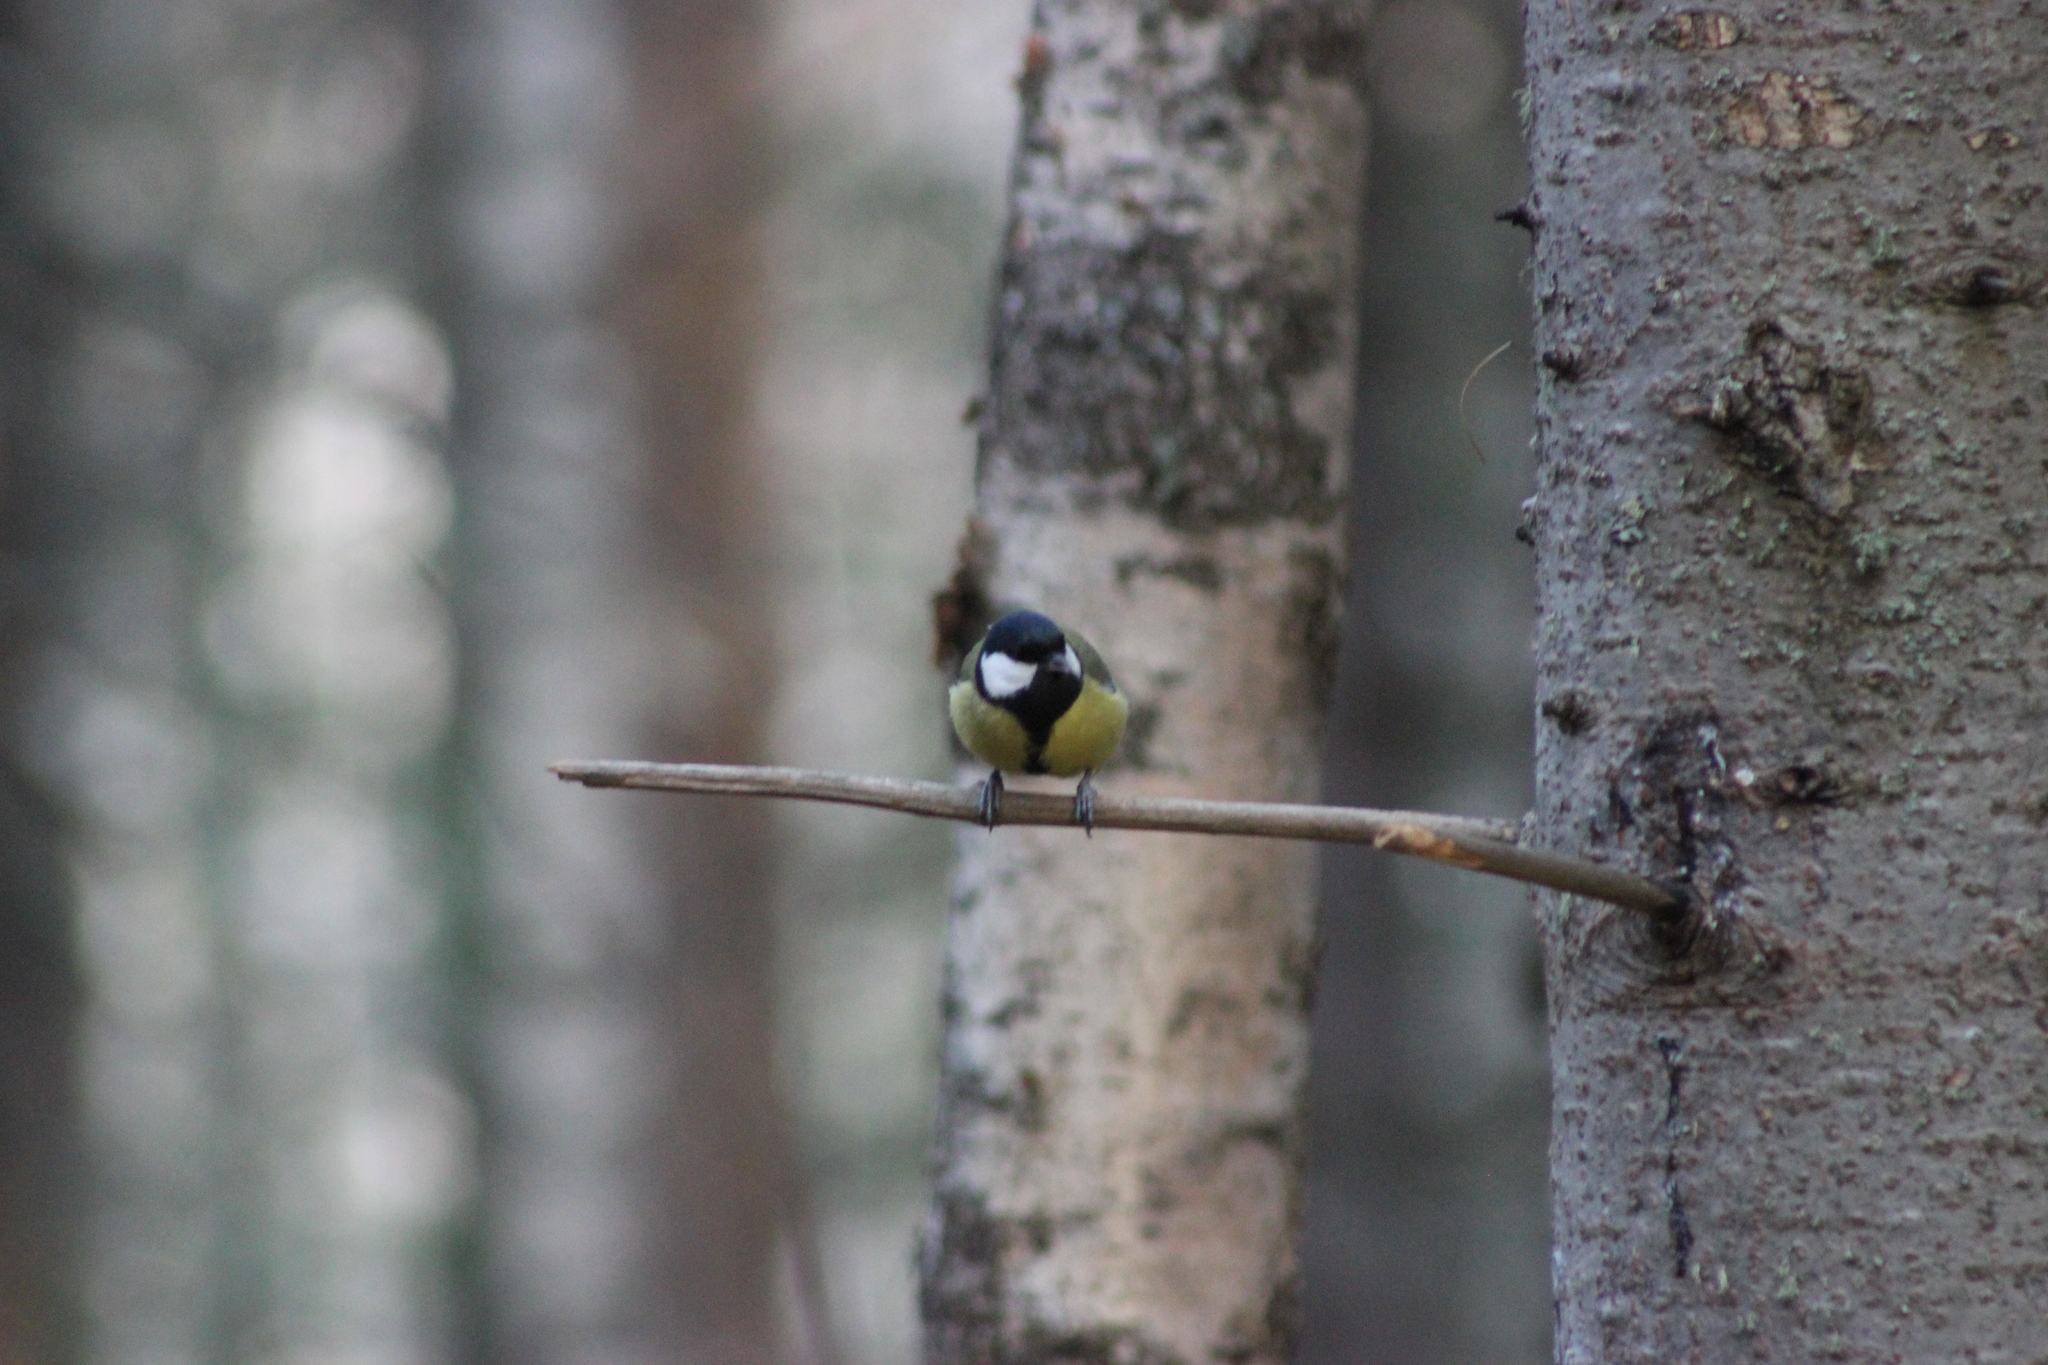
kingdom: Animalia
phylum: Chordata
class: Aves
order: Passeriformes
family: Paridae
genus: Parus
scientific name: Parus major
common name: Great tit
